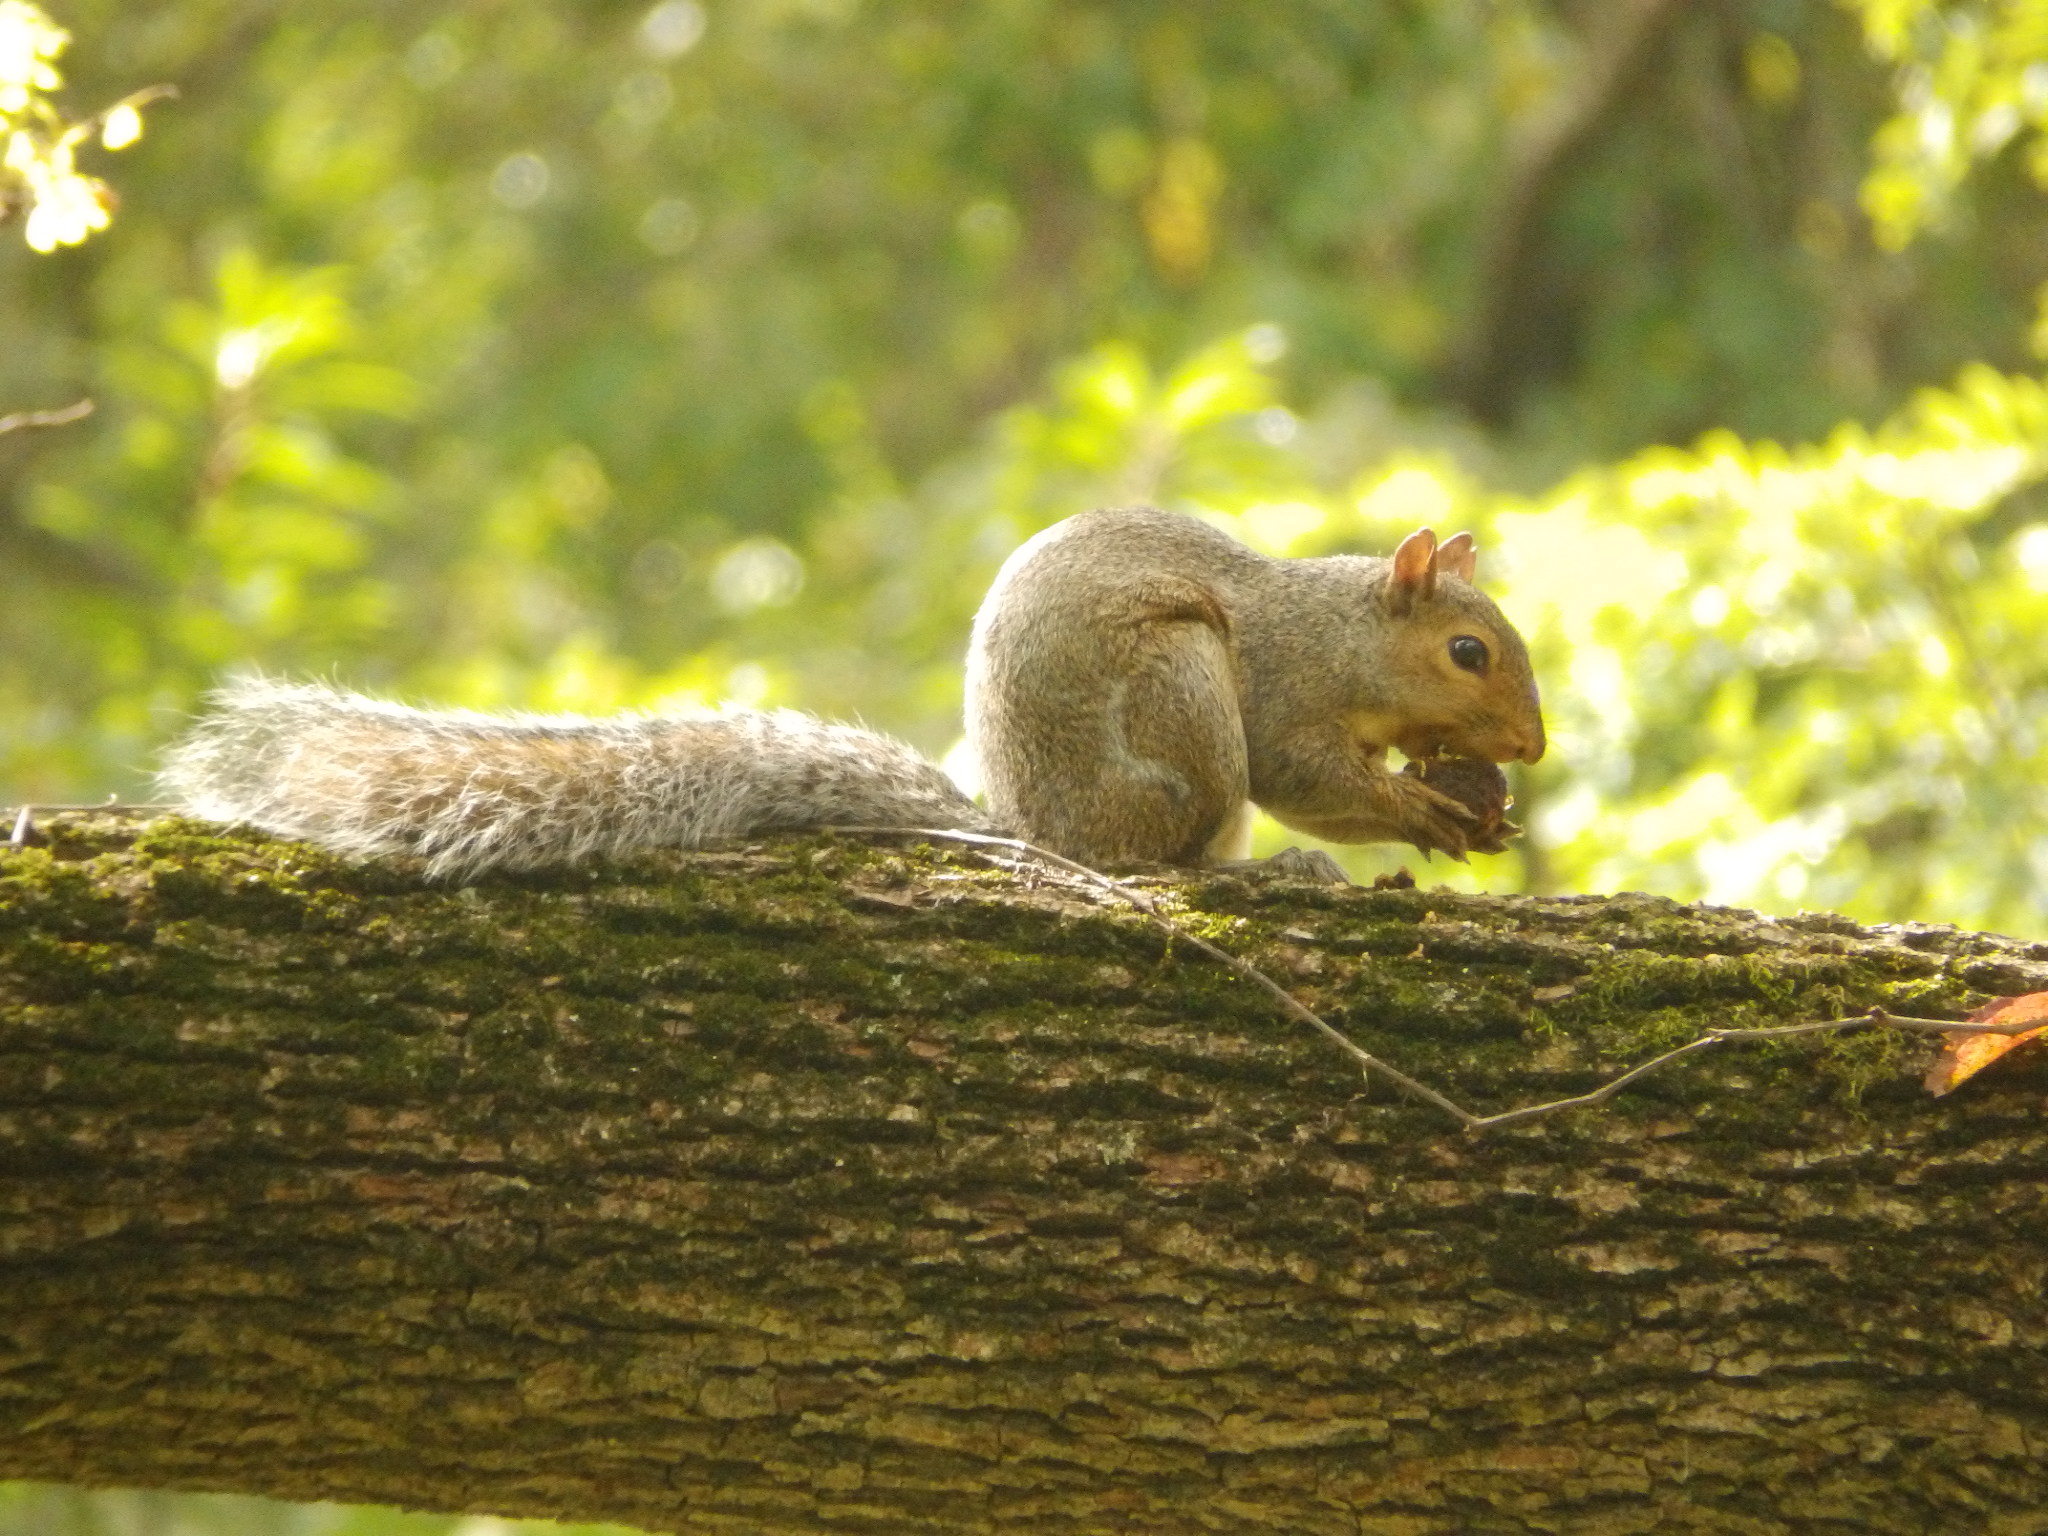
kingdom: Animalia
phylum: Chordata
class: Mammalia
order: Rodentia
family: Sciuridae
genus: Sciurus
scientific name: Sciurus carolinensis
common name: Eastern gray squirrel
